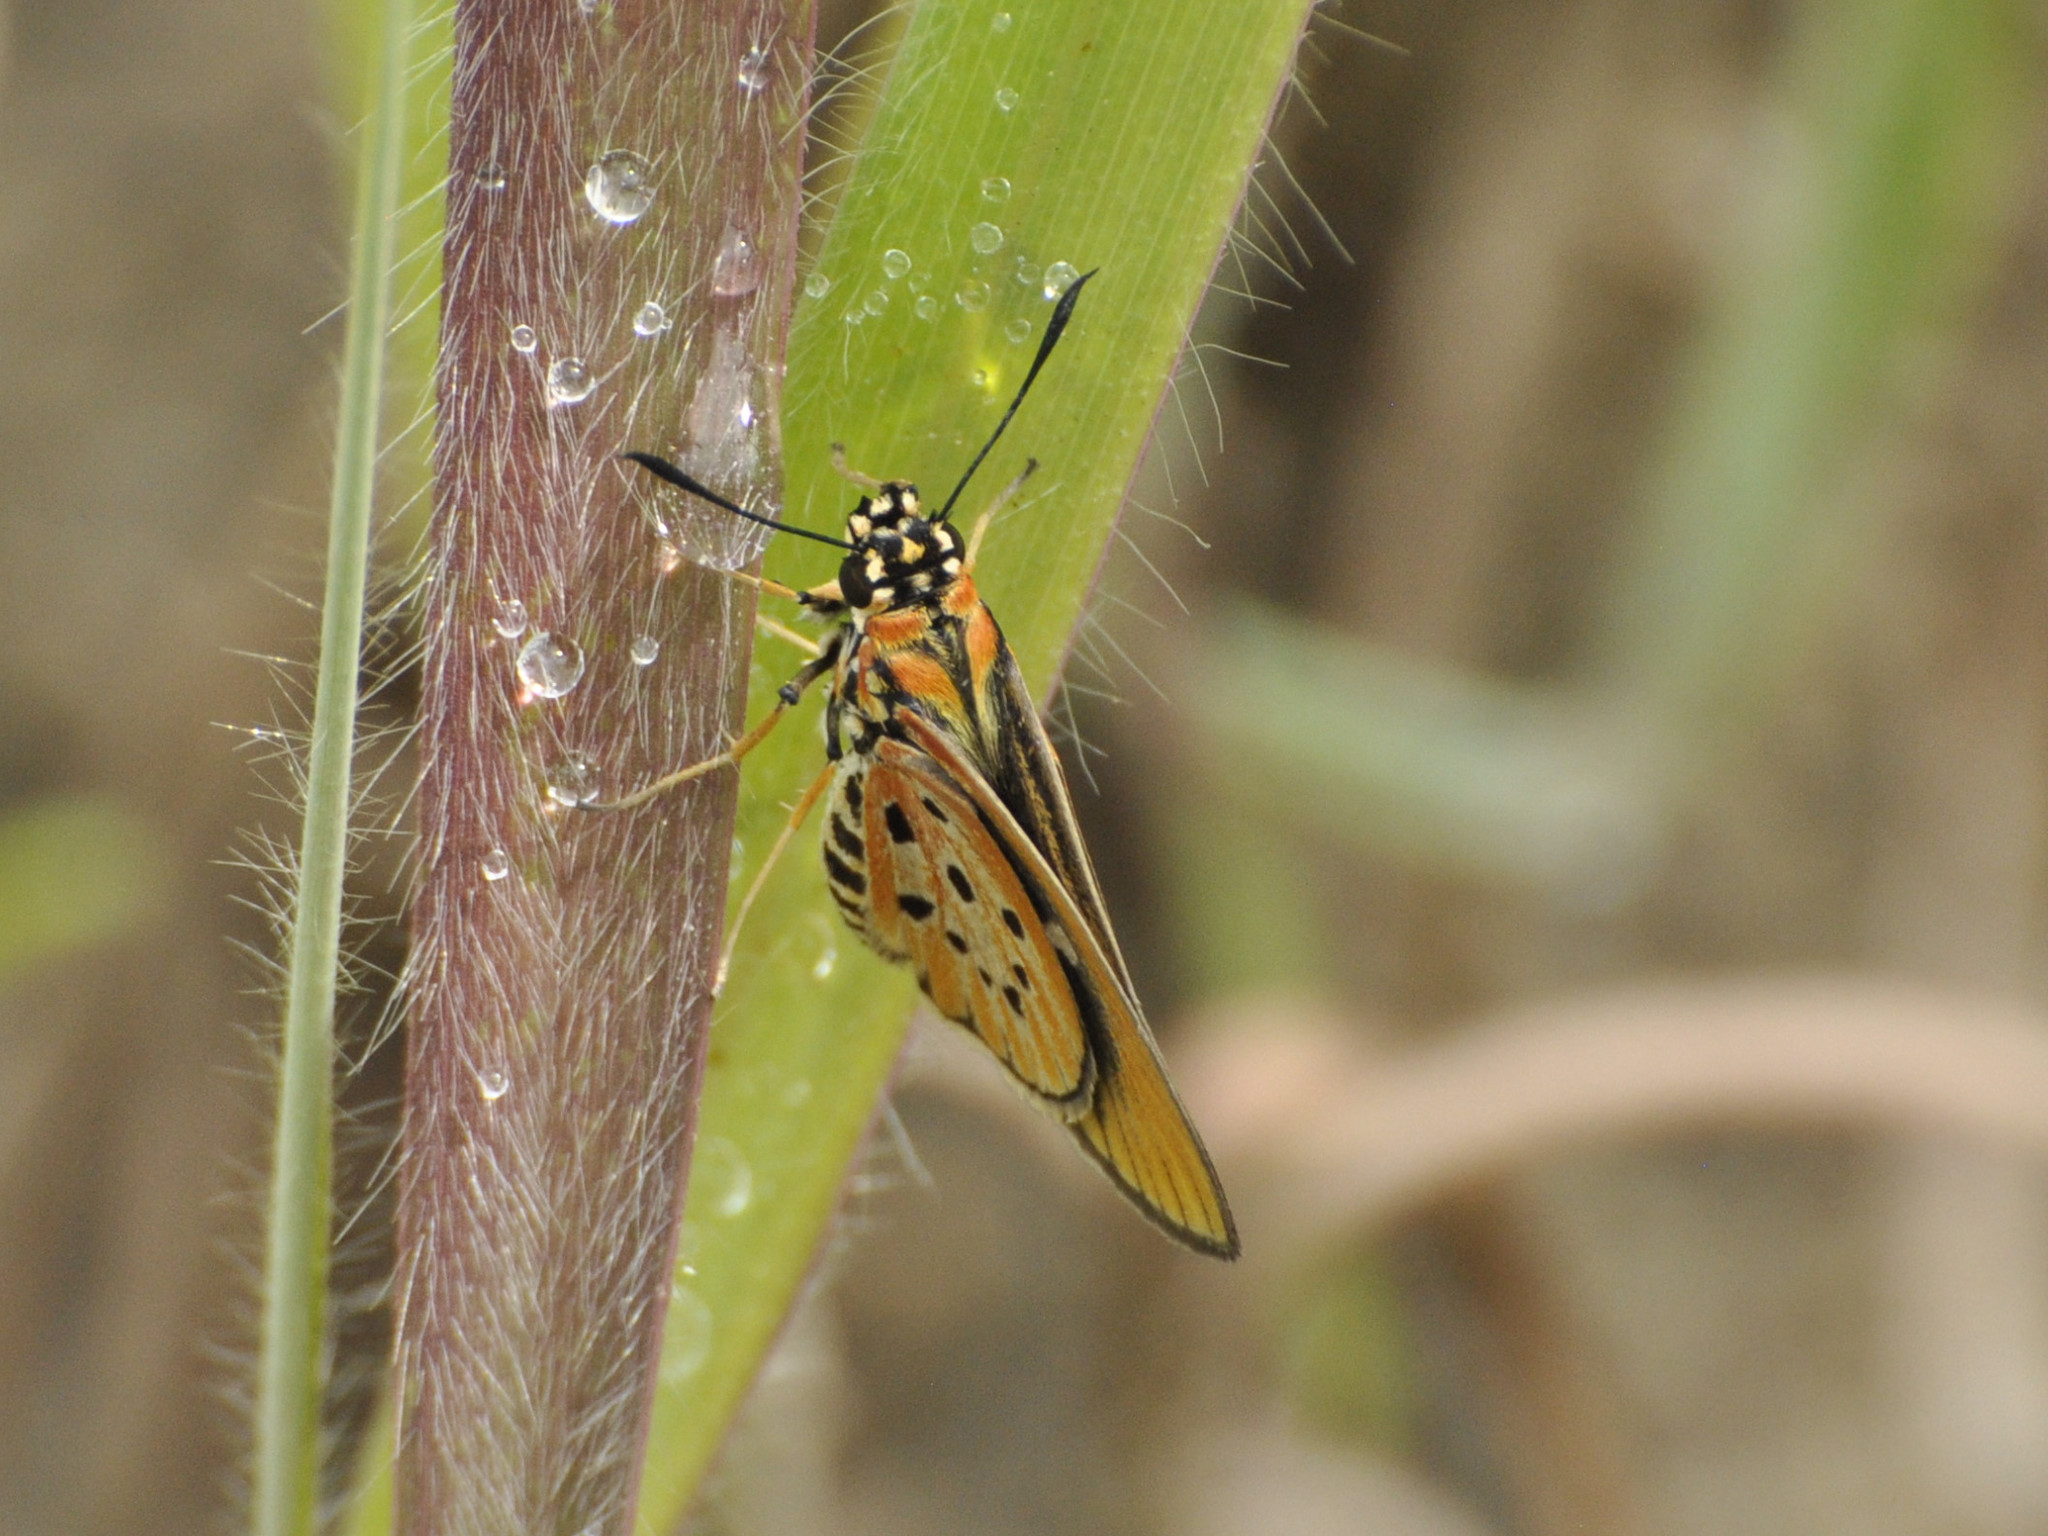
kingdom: Animalia
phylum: Arthropoda
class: Insecta
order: Lepidoptera
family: Hesperiidae
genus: Fresna
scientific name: Fresna nyassae
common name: Variegated acraea hopper
